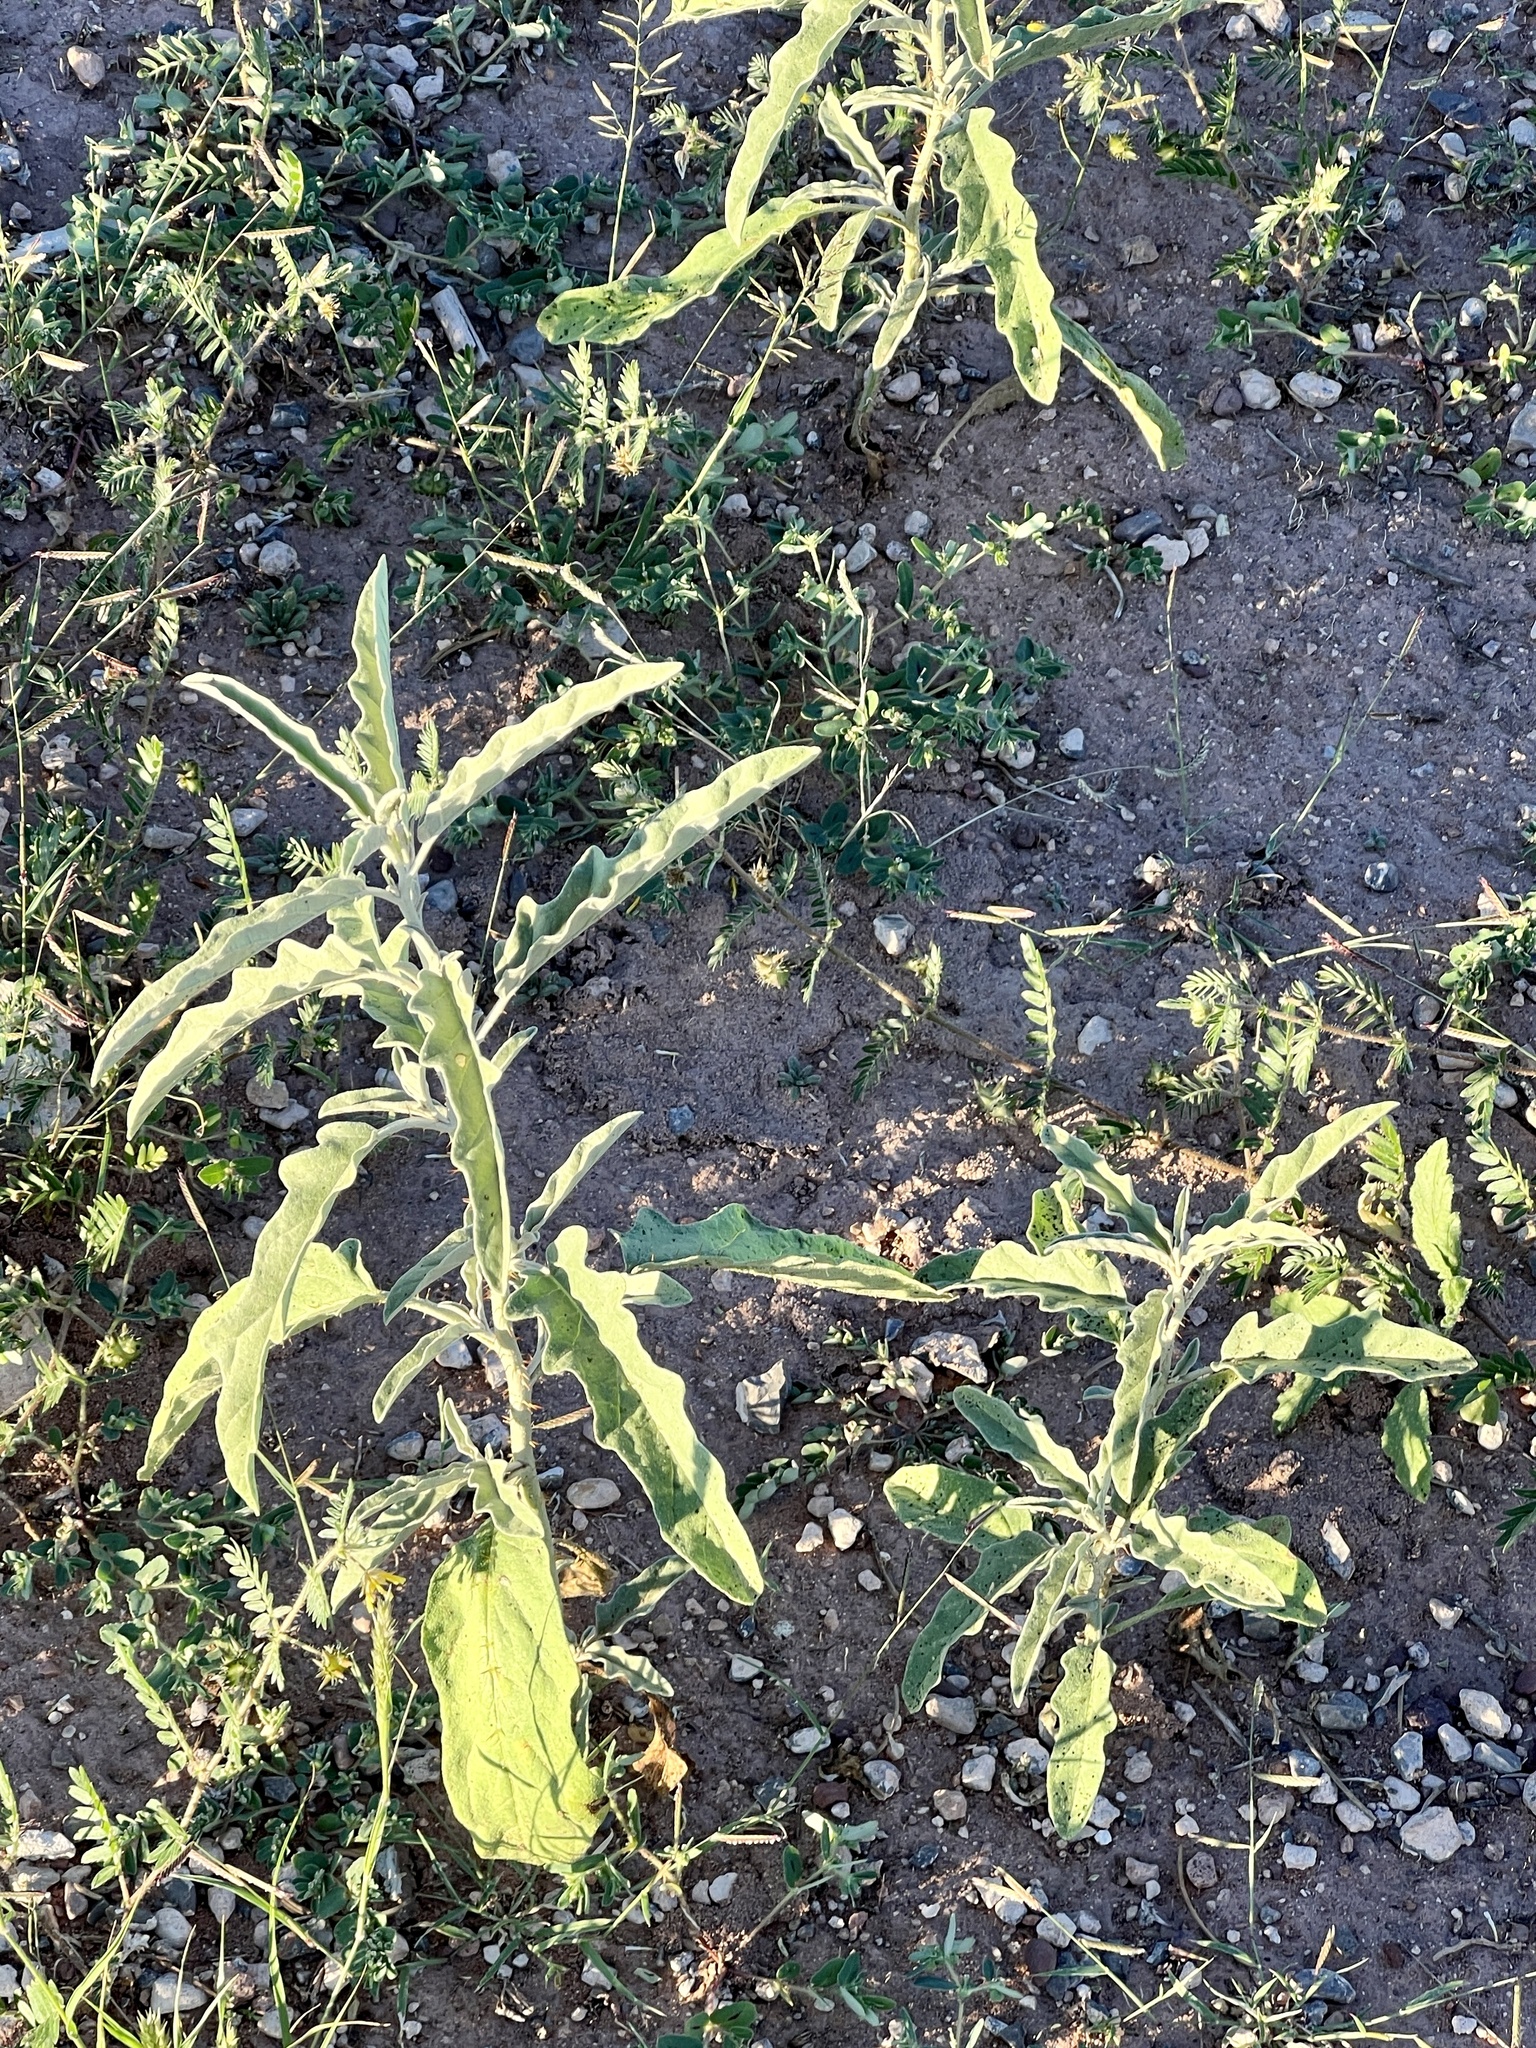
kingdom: Plantae
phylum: Tracheophyta
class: Magnoliopsida
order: Solanales
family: Solanaceae
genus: Solanum
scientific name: Solanum elaeagnifolium
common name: Silverleaf nightshade
